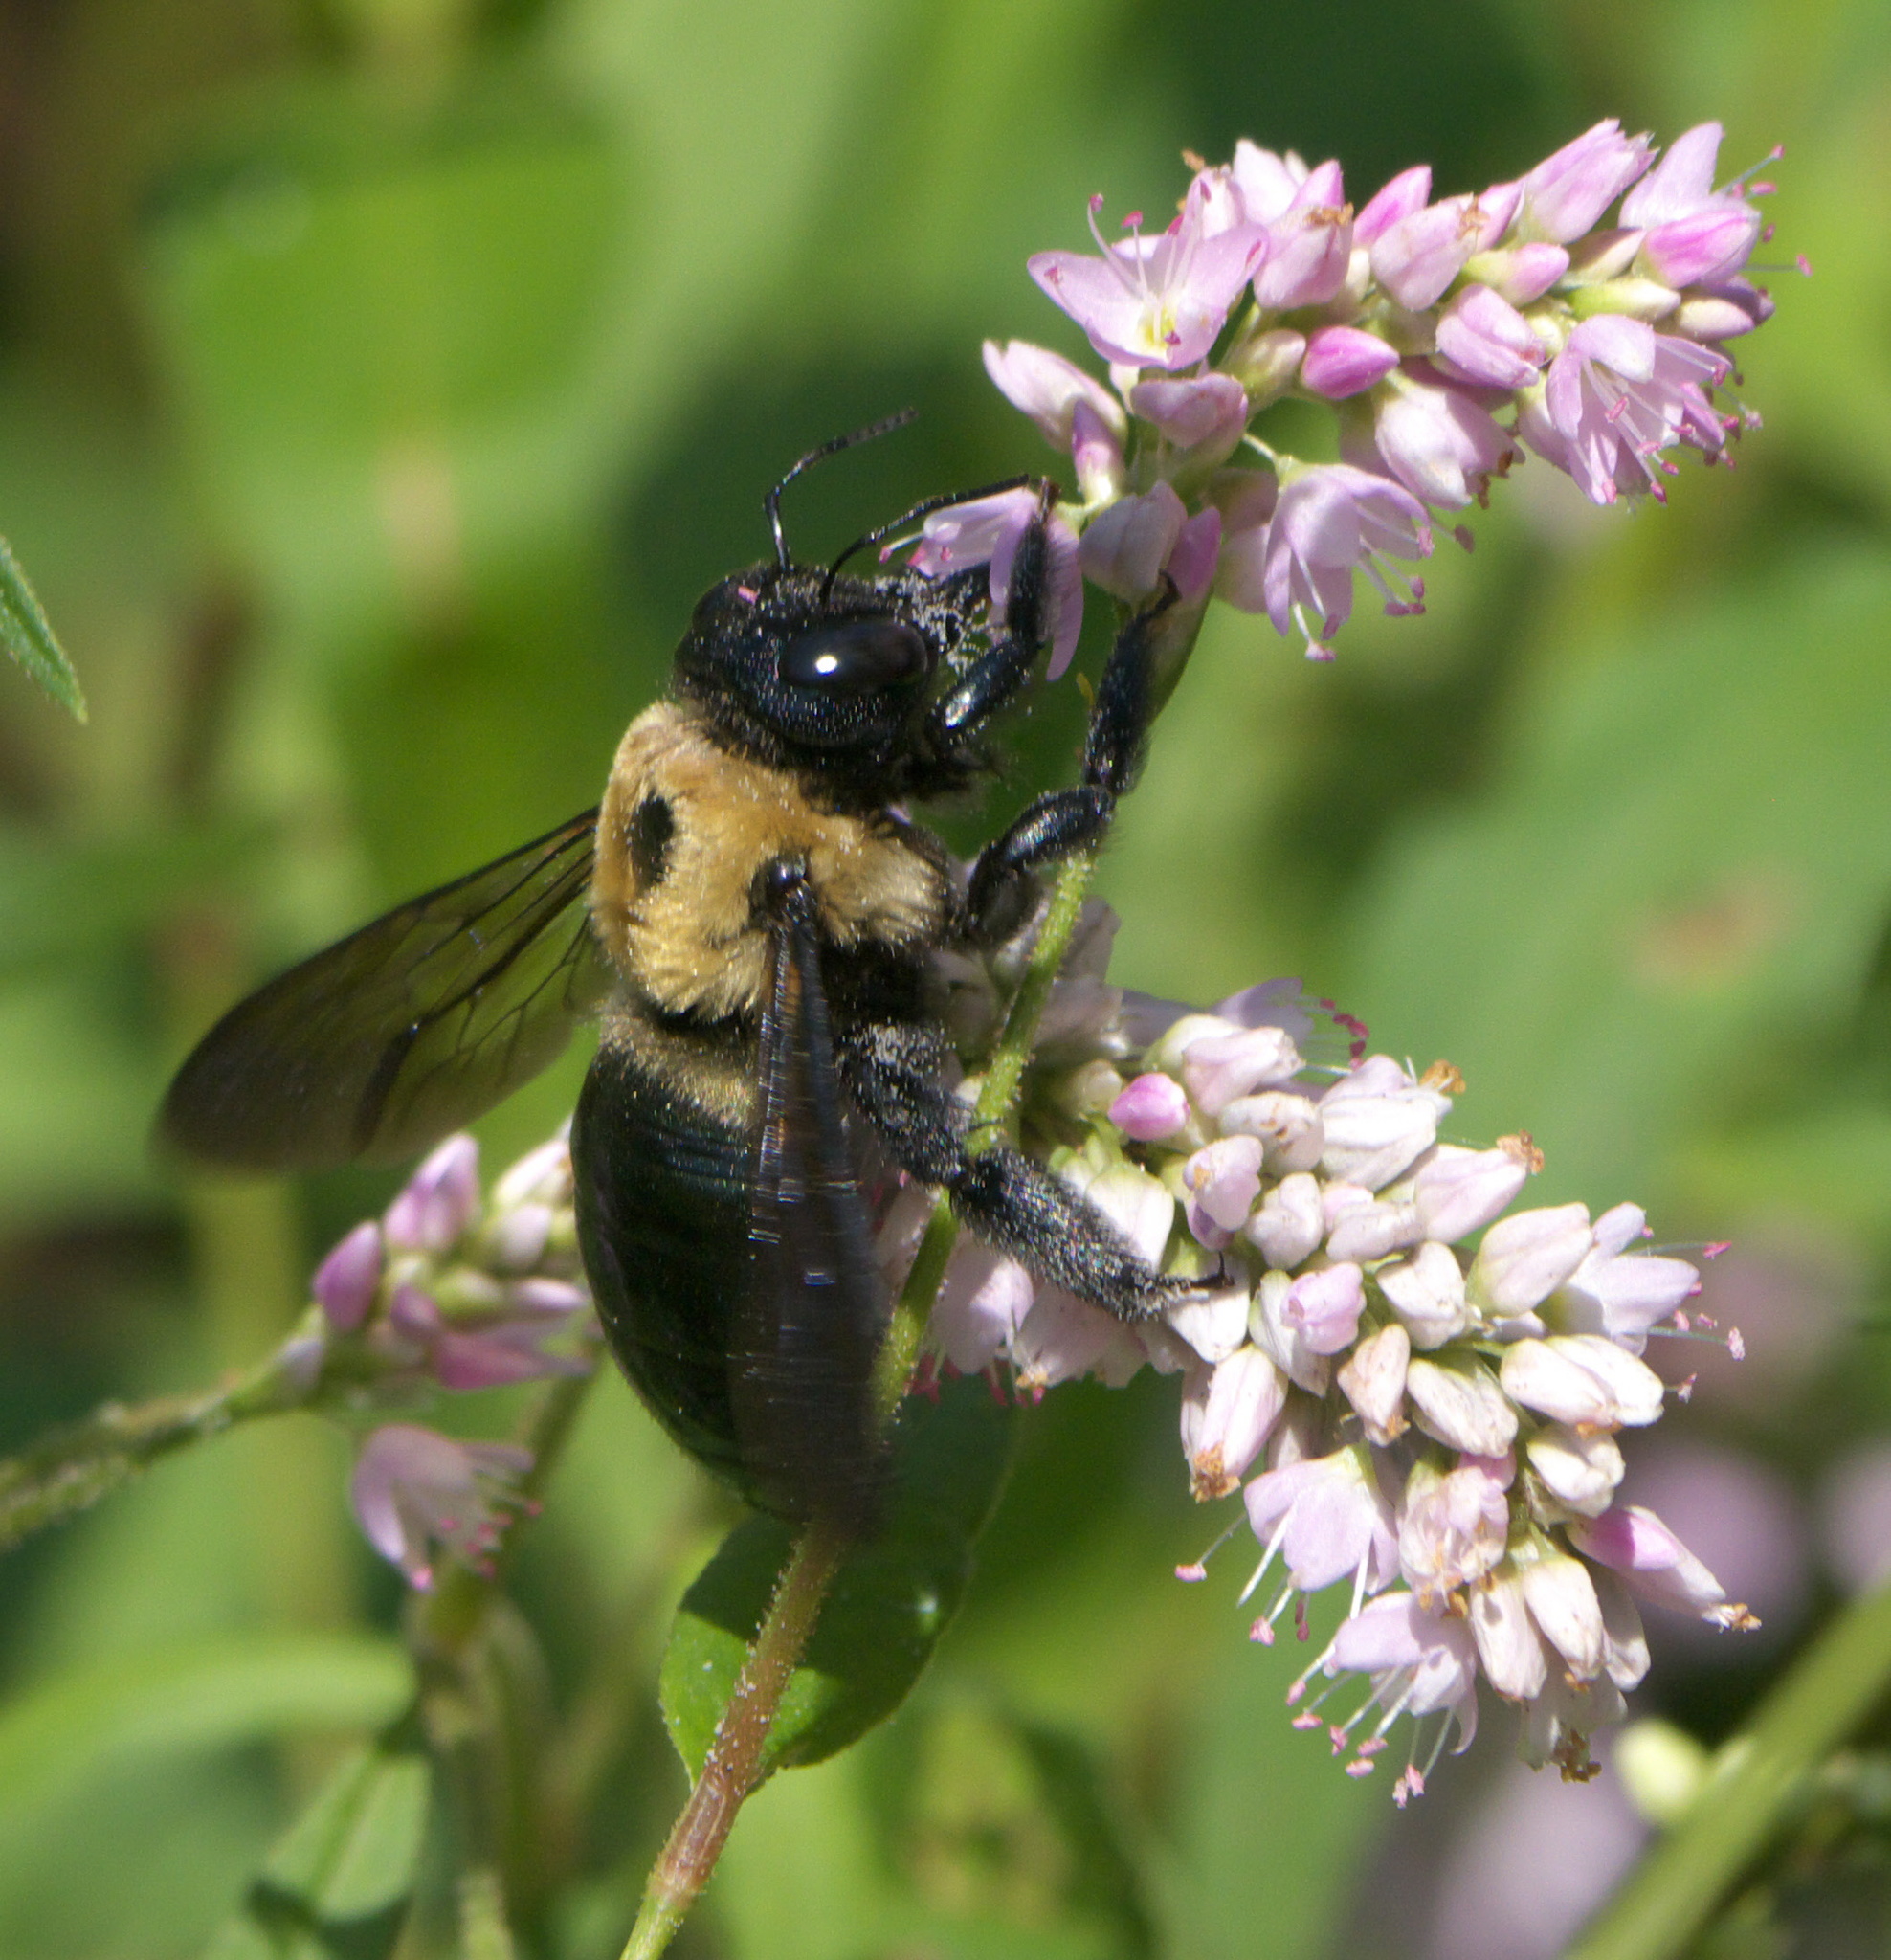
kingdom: Animalia
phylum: Arthropoda
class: Insecta
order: Hymenoptera
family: Apidae
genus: Xylocopa
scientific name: Xylocopa virginica
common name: Carpenter bee
